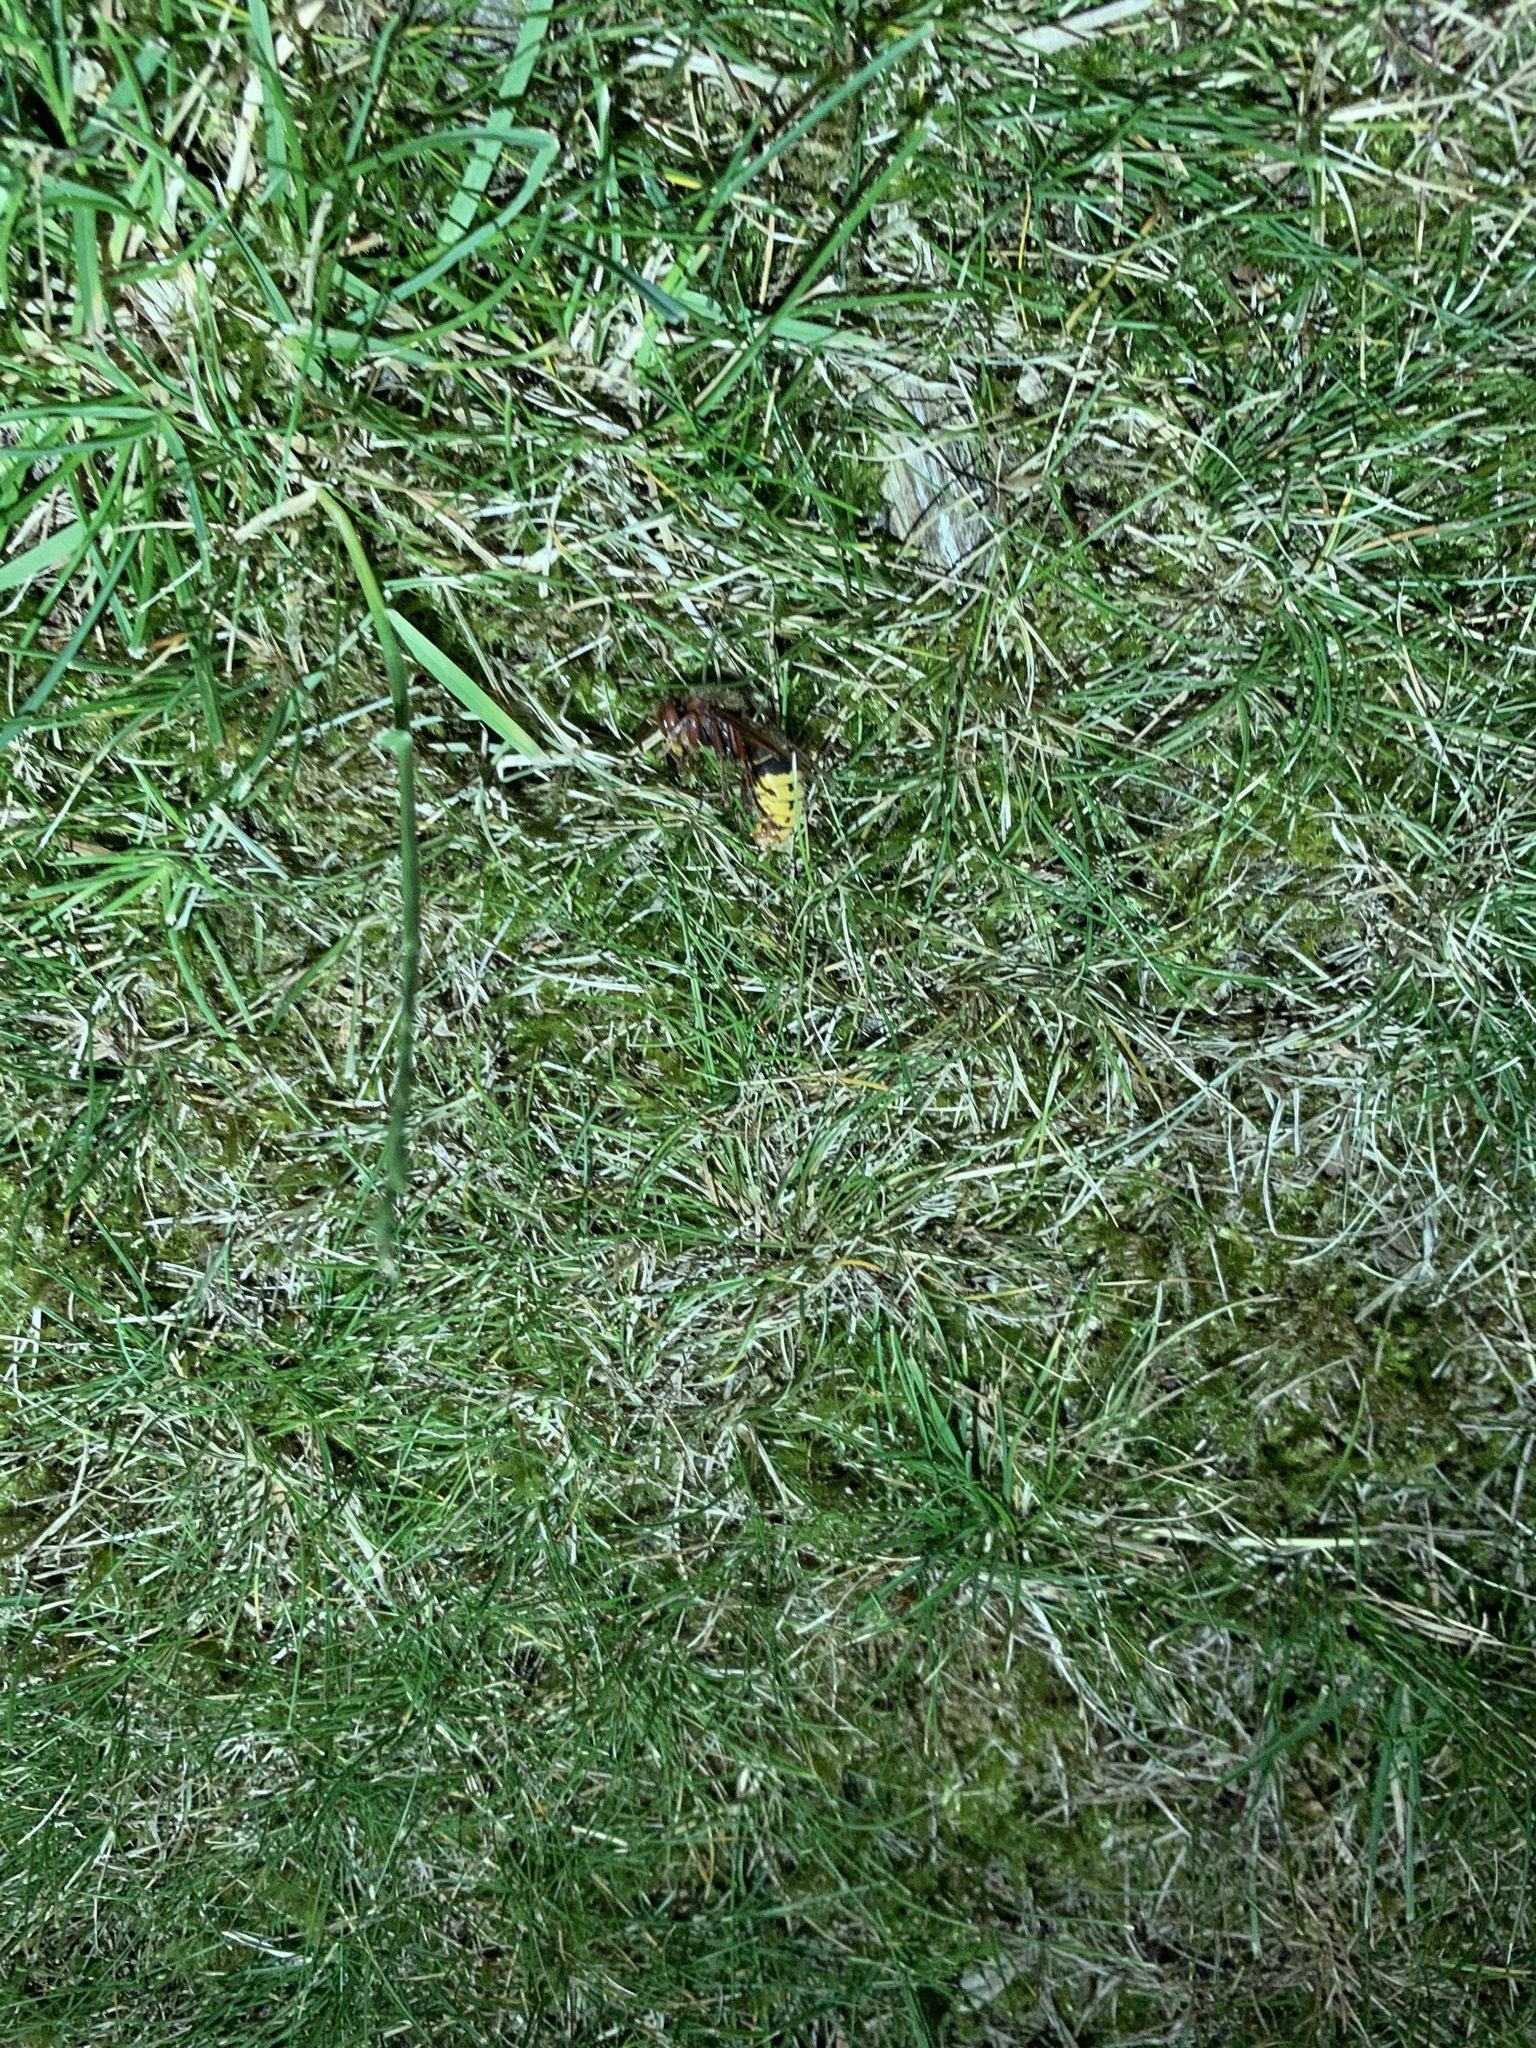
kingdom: Animalia
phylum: Arthropoda
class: Insecta
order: Hymenoptera
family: Vespidae
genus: Vespa
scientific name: Vespa crabro
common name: Hornet
